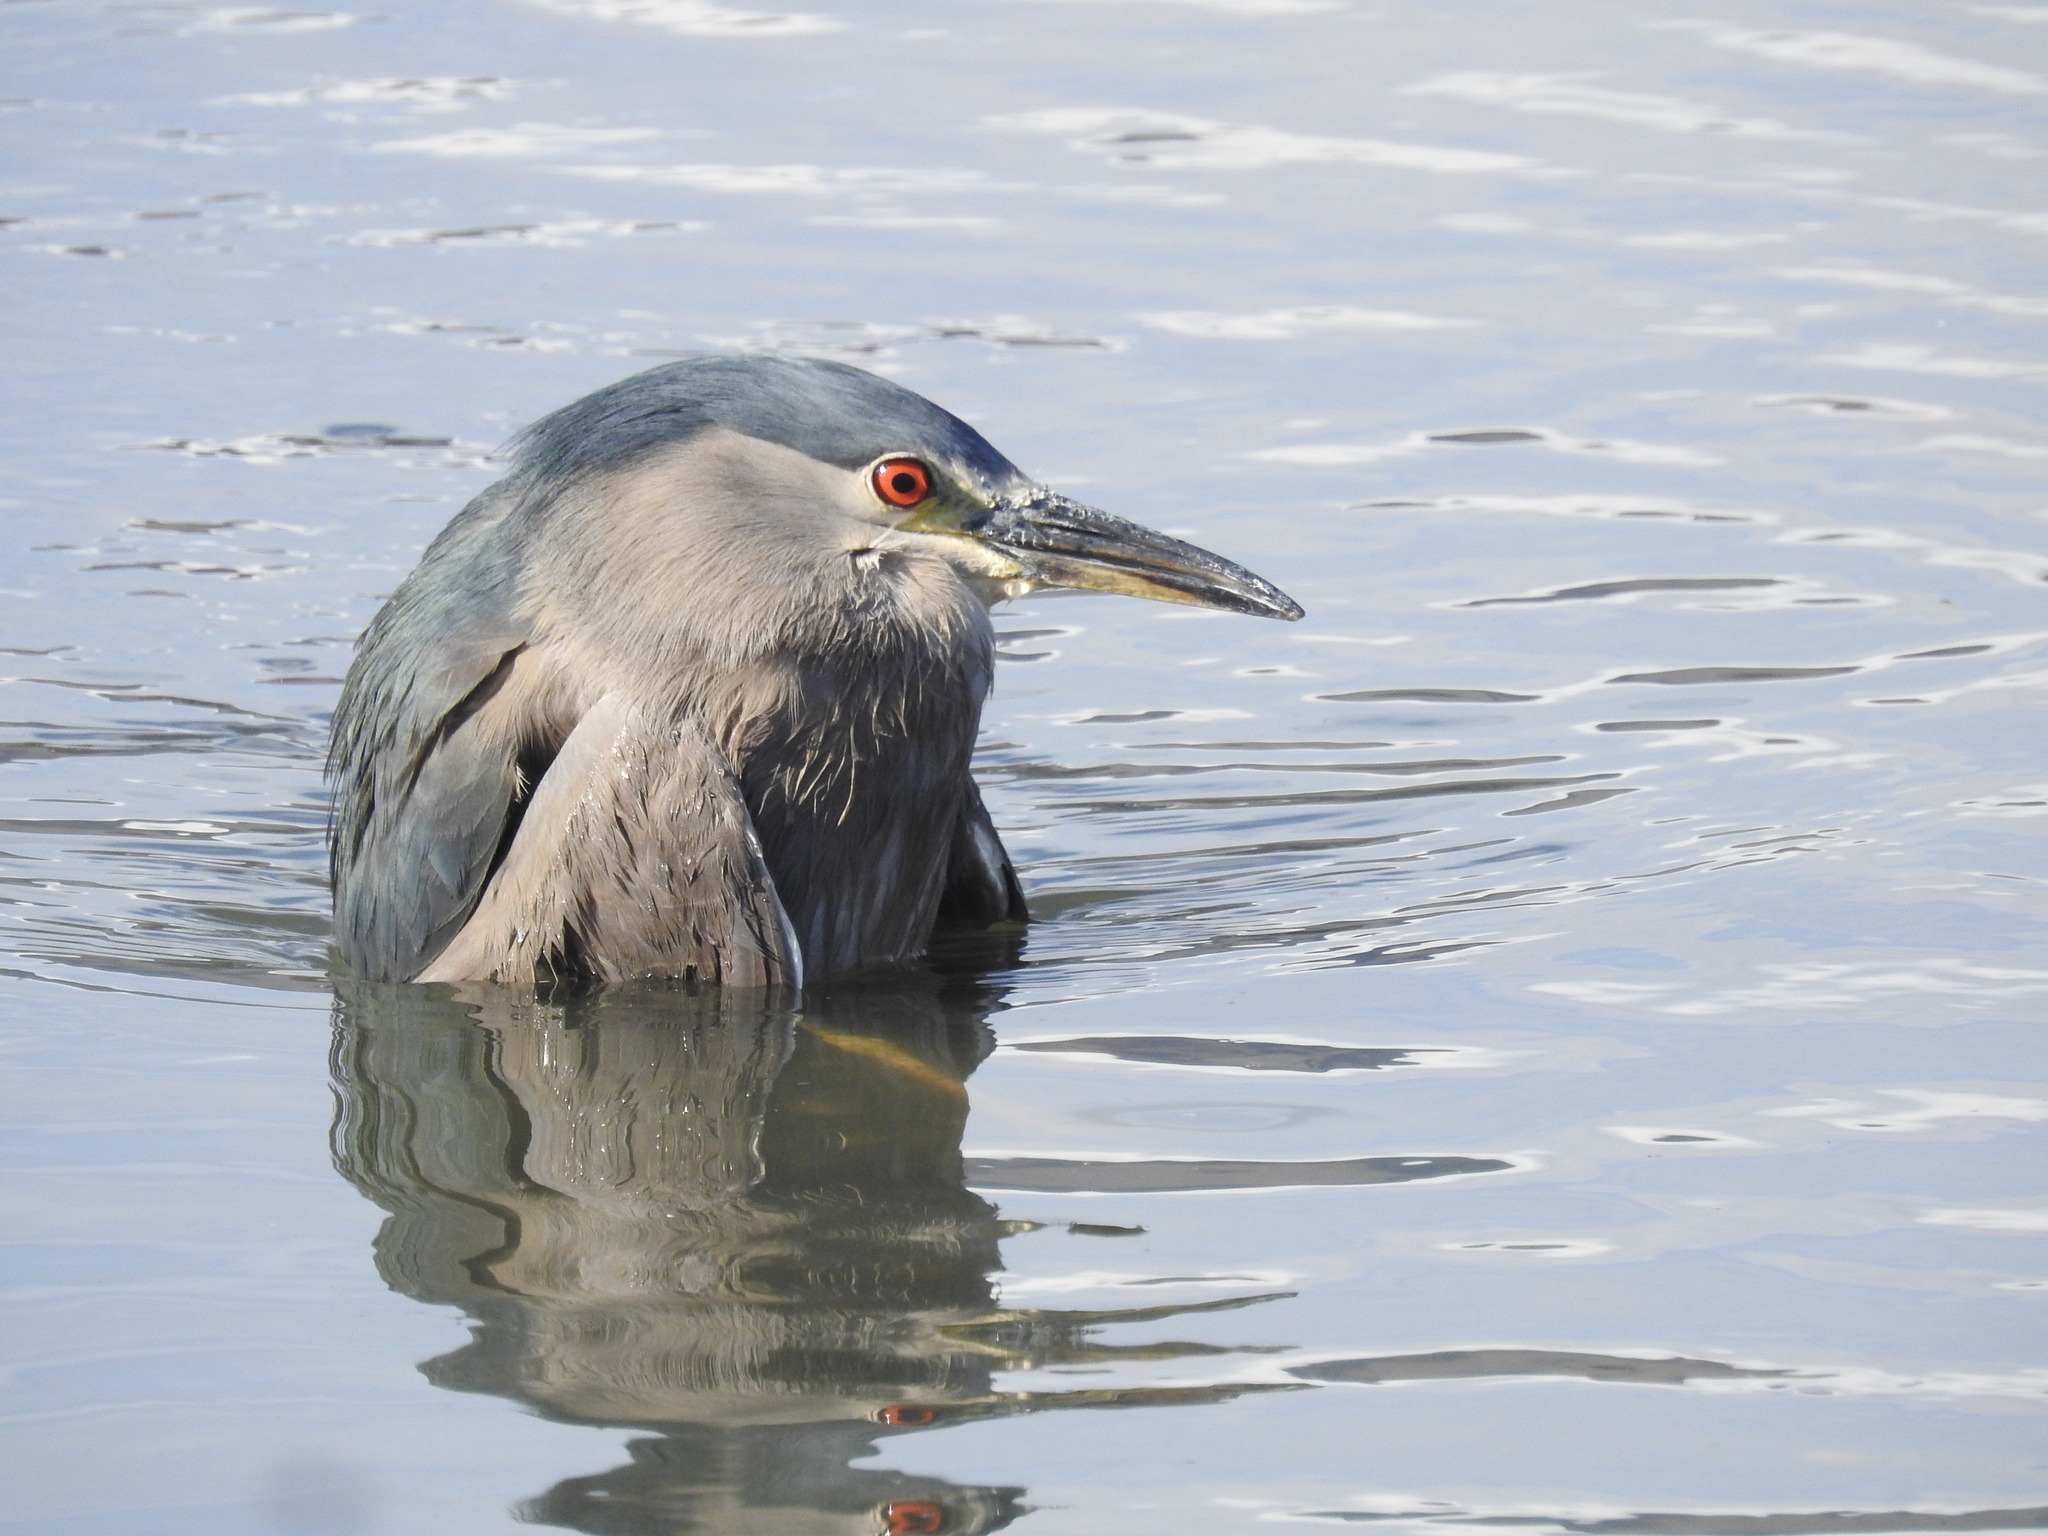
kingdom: Animalia
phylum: Chordata
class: Aves
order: Pelecaniformes
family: Ardeidae
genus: Nycticorax
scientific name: Nycticorax nycticorax
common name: Black-crowned night heron
